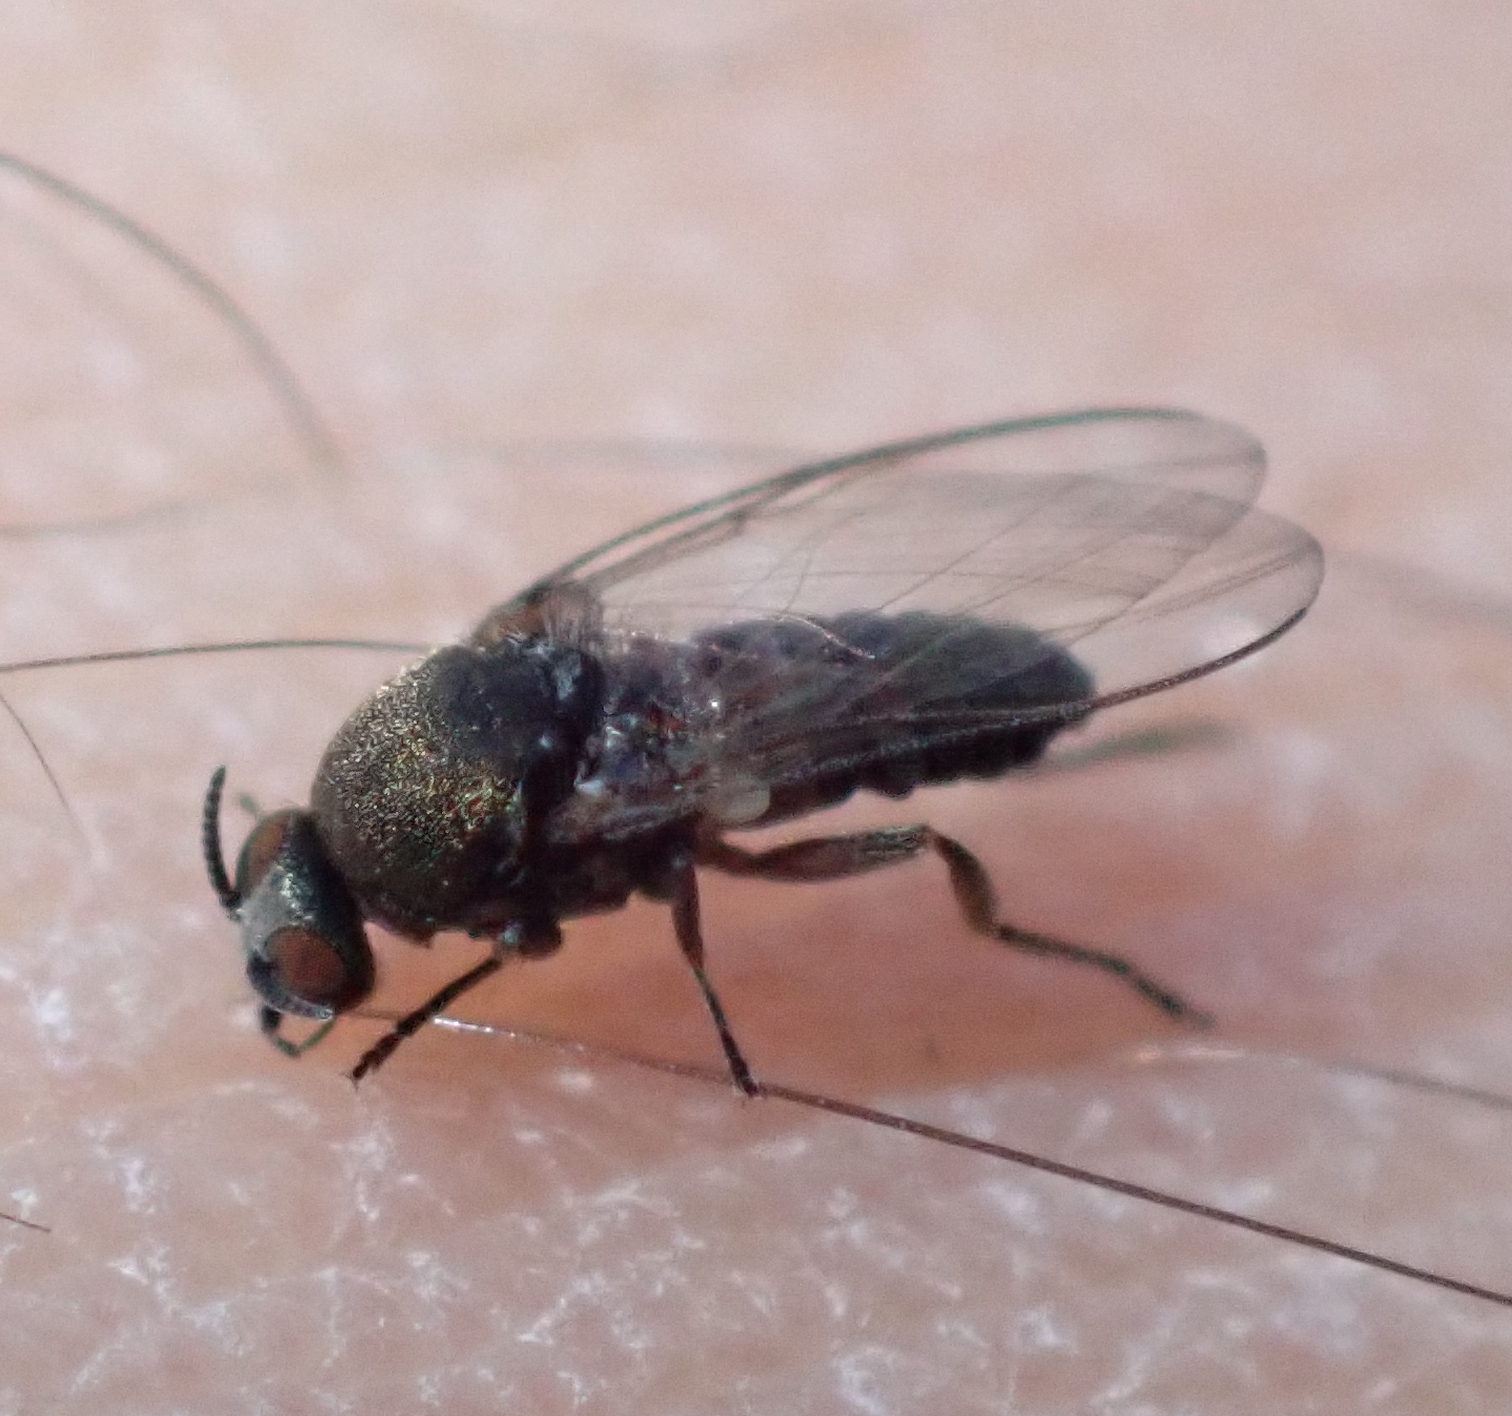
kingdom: Animalia
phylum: Arthropoda
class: Insecta
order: Diptera
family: Simuliidae
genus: Austrosimulium
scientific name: Austrosimulium australense
